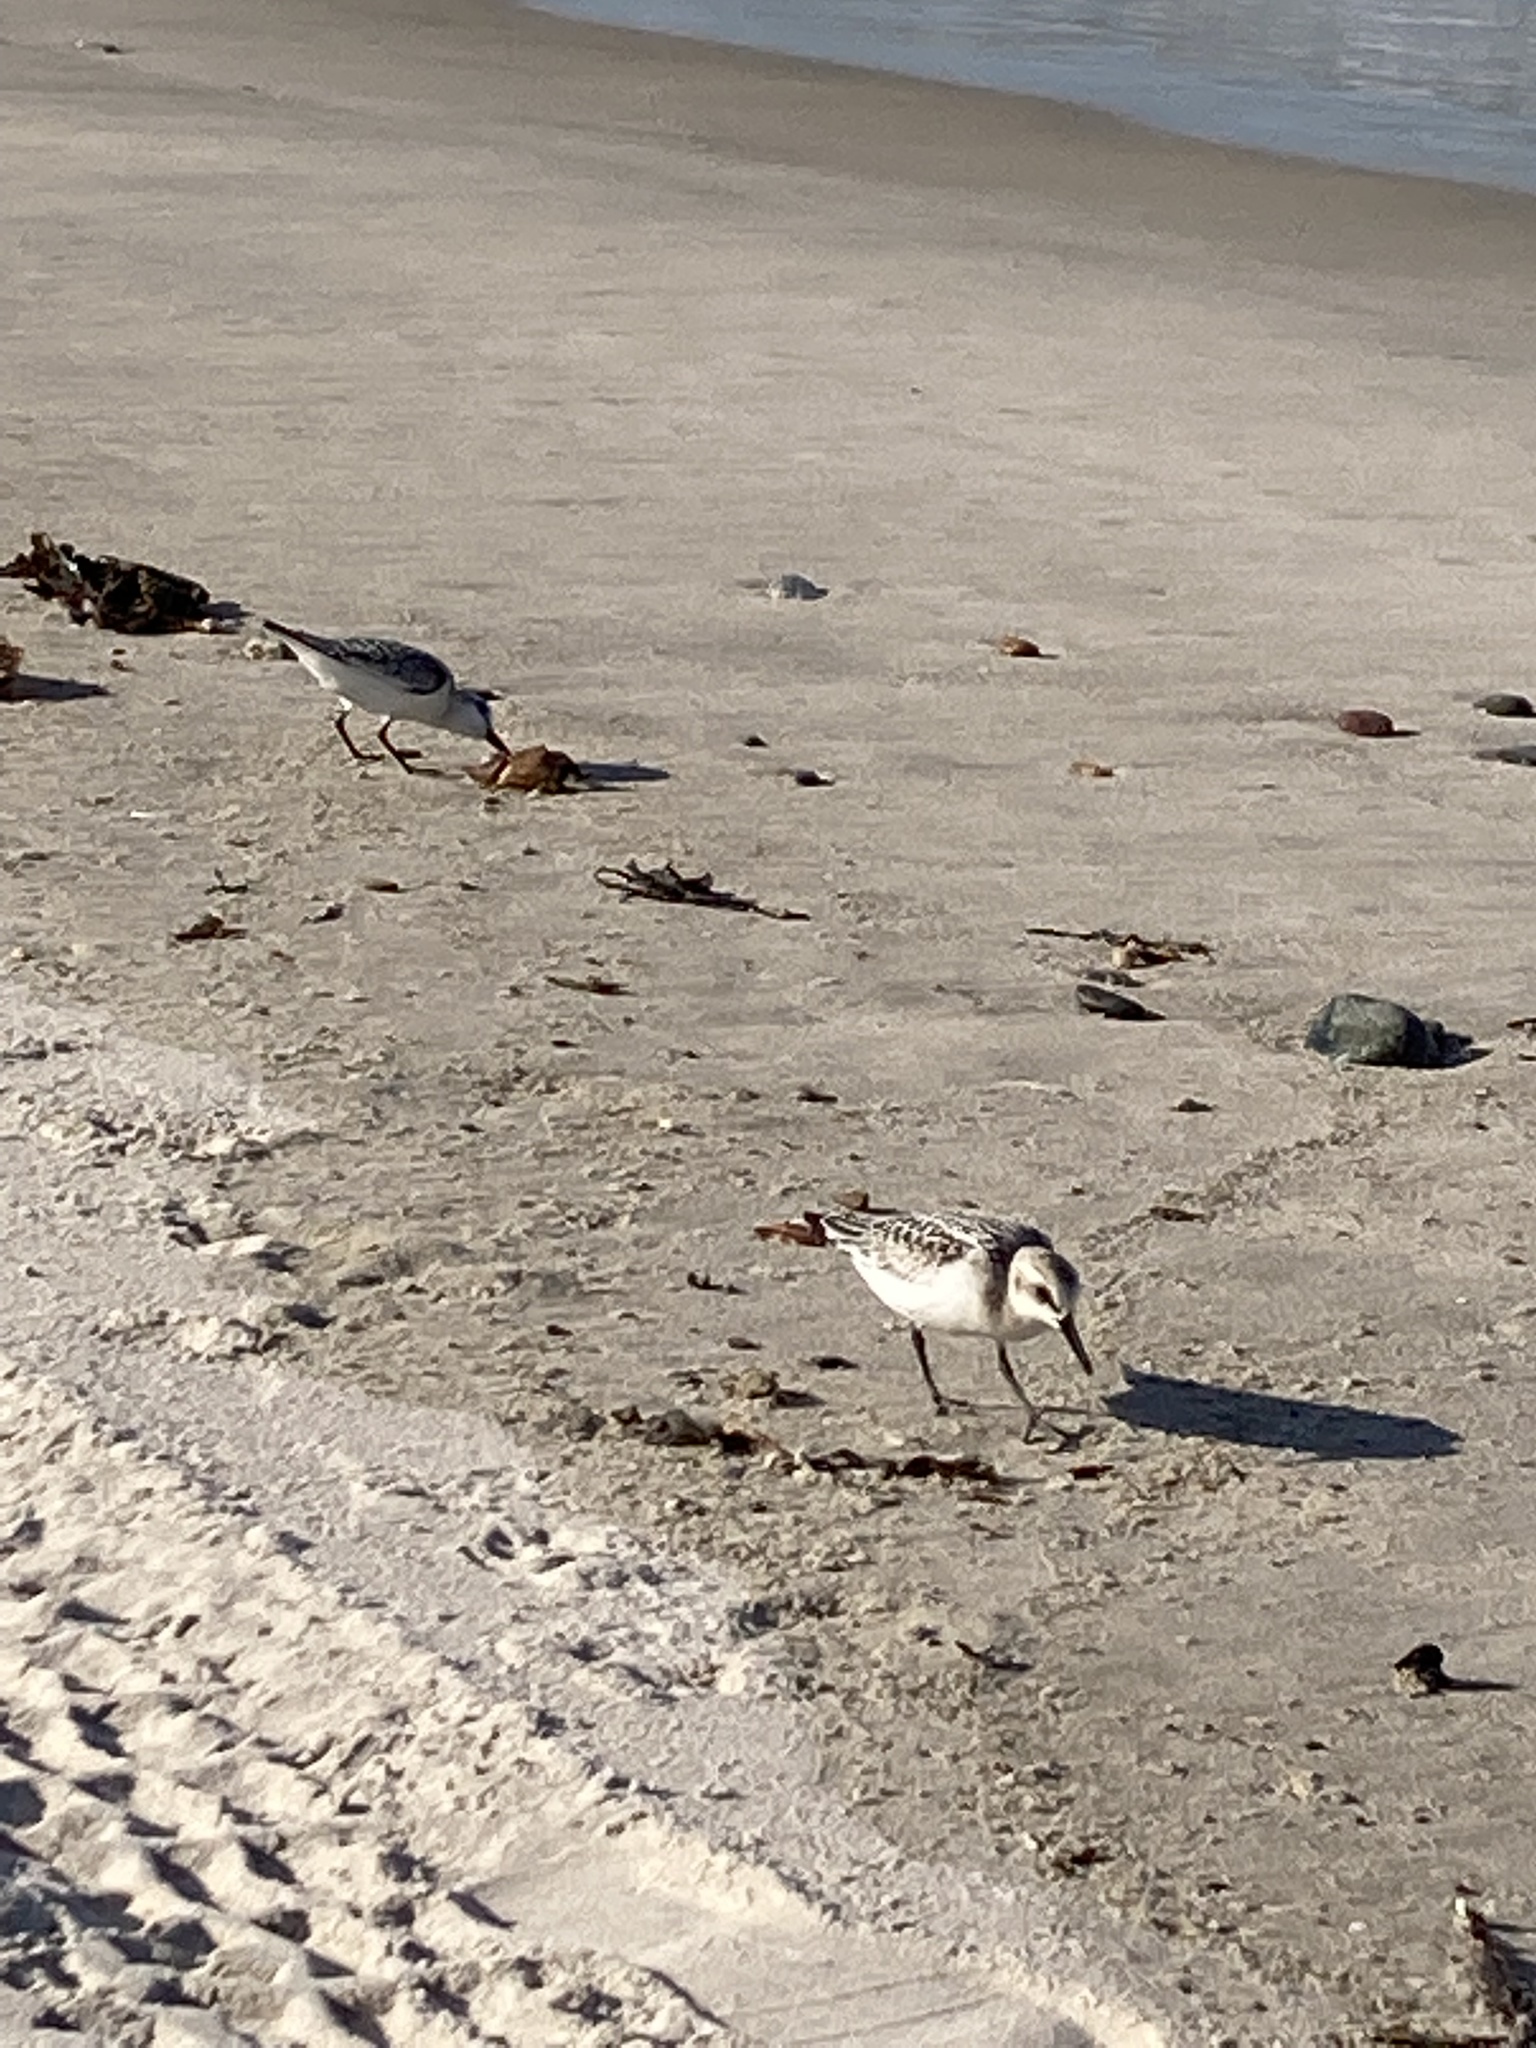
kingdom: Animalia
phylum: Chordata
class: Aves
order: Charadriiformes
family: Scolopacidae
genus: Calidris
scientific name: Calidris alba
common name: Sanderling
